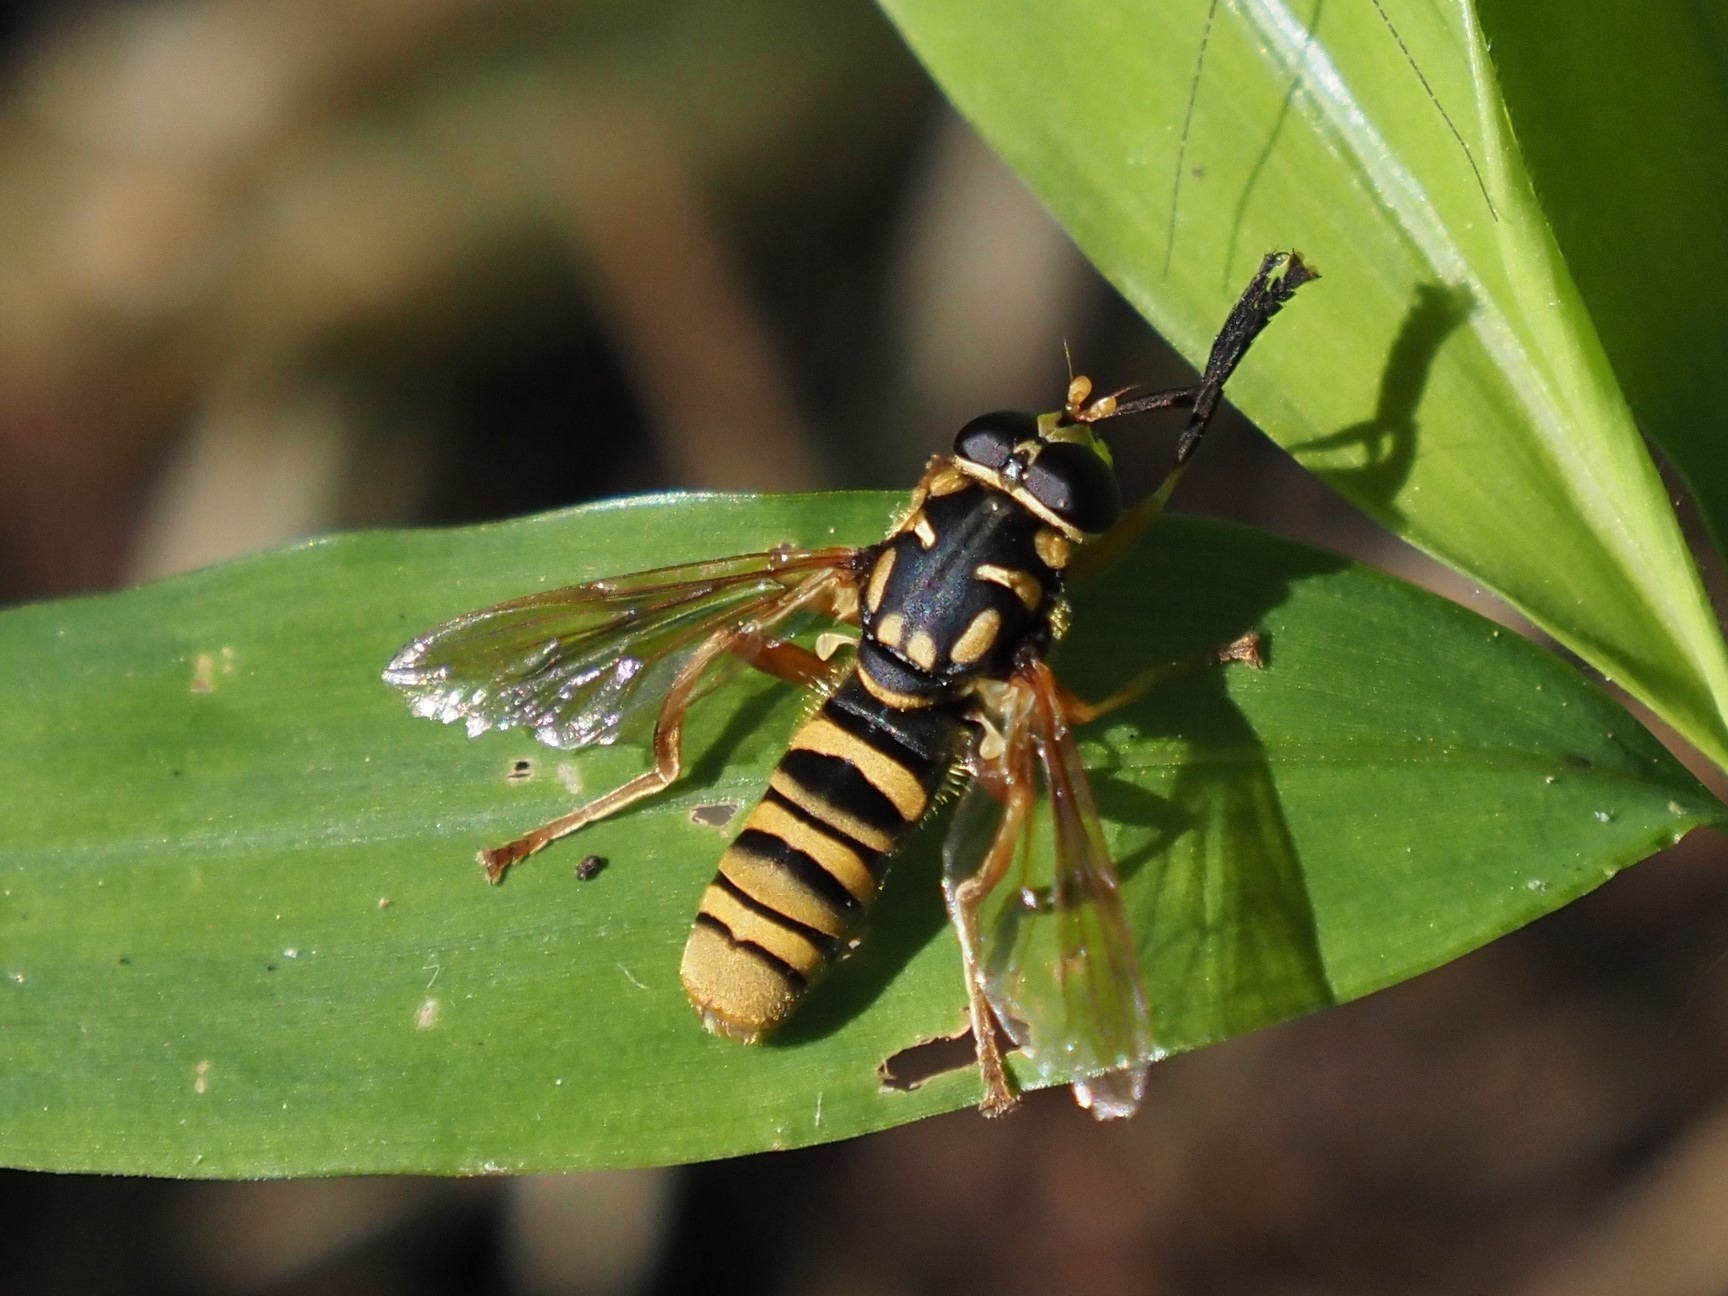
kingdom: Animalia
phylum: Arthropoda
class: Insecta
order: Diptera
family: Syrphidae
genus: Temnostoma
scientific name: Temnostoma daochum
